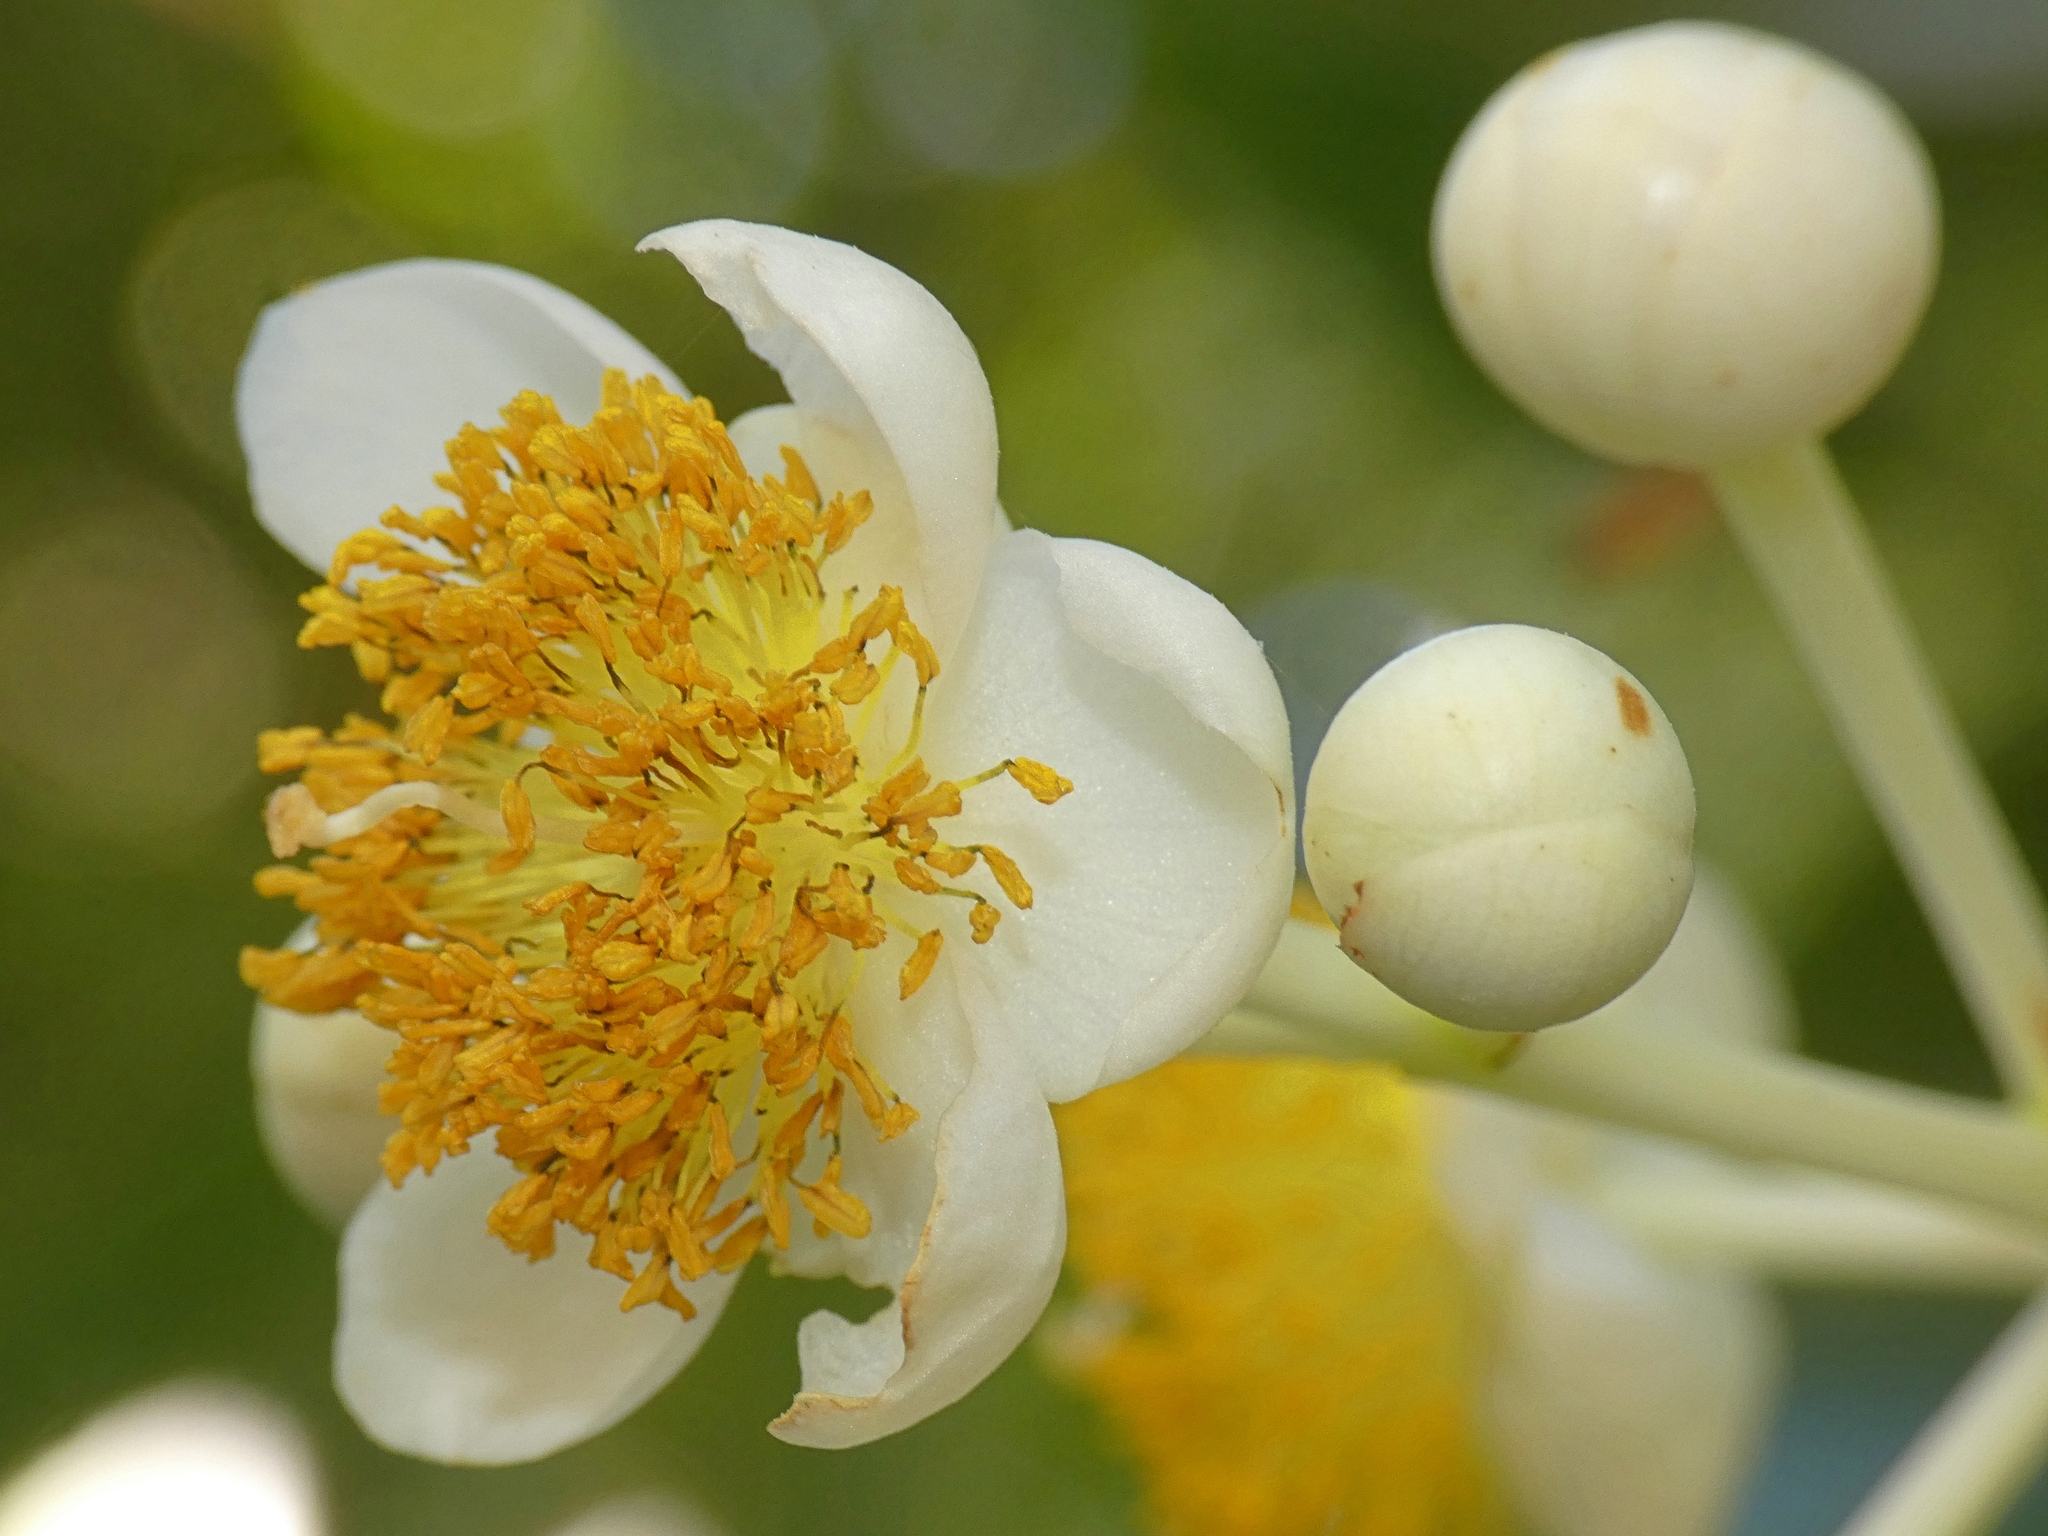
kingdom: Plantae
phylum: Tracheophyta
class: Magnoliopsida
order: Malpighiales
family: Calophyllaceae
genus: Calophyllum
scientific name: Calophyllum inophyllum
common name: Alexandrian laurel
